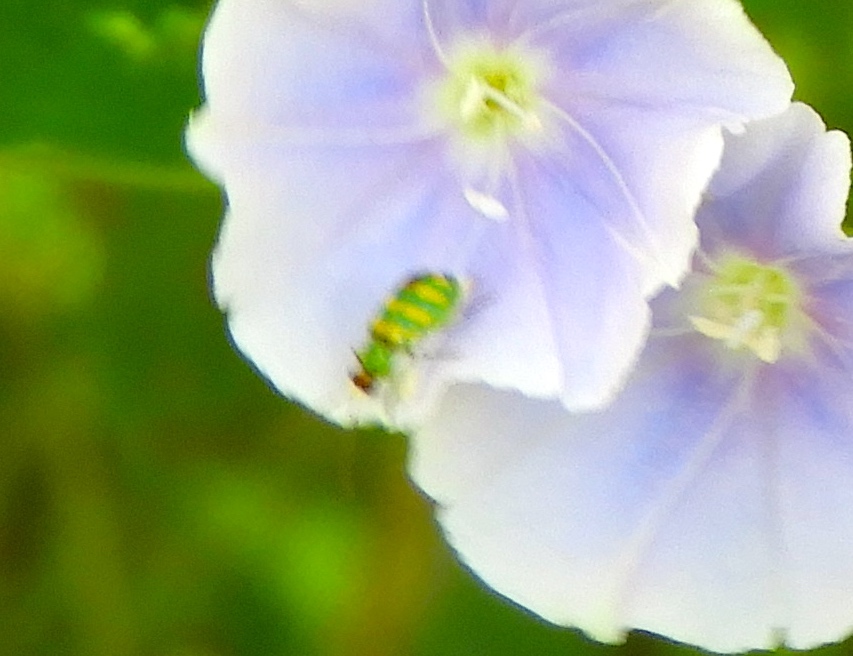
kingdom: Animalia
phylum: Arthropoda
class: Insecta
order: Coleoptera
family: Chrysomelidae
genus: Diabrotica
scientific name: Diabrotica balteata
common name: Leaf beetle
